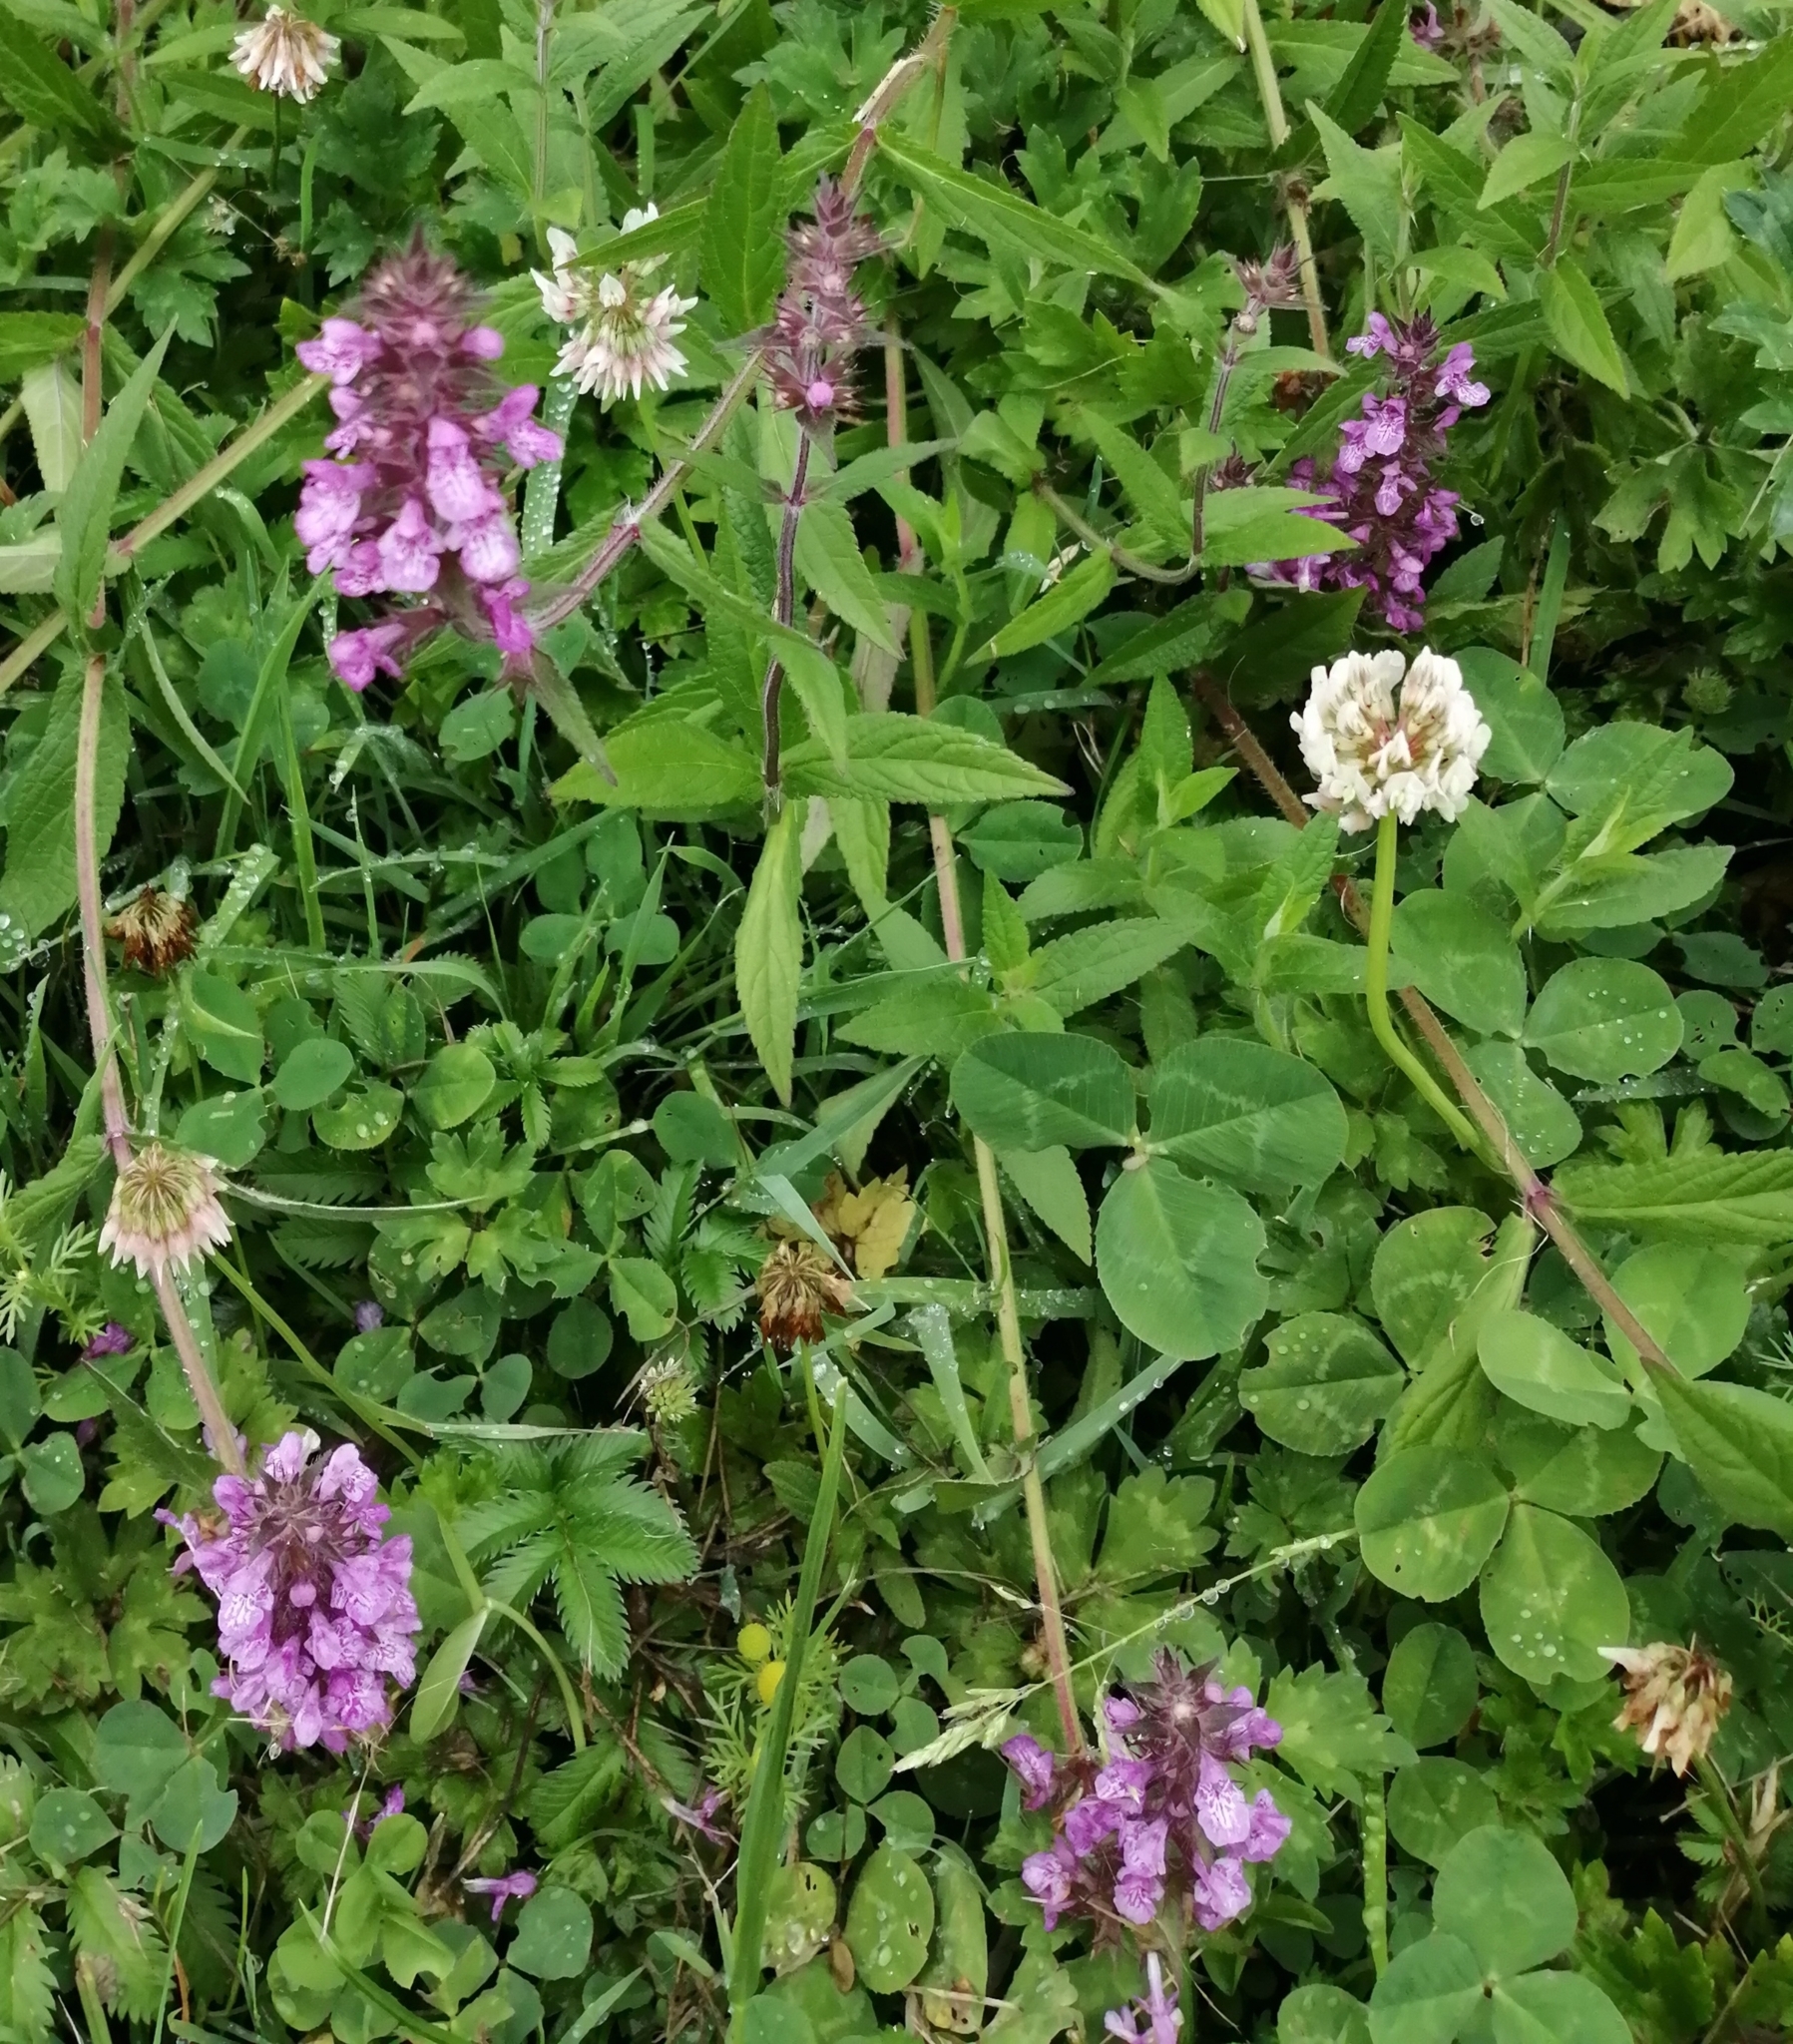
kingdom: Plantae
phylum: Tracheophyta
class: Magnoliopsida
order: Lamiales
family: Lamiaceae
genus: Stachys
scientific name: Stachys palustris
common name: Marsh woundwort
